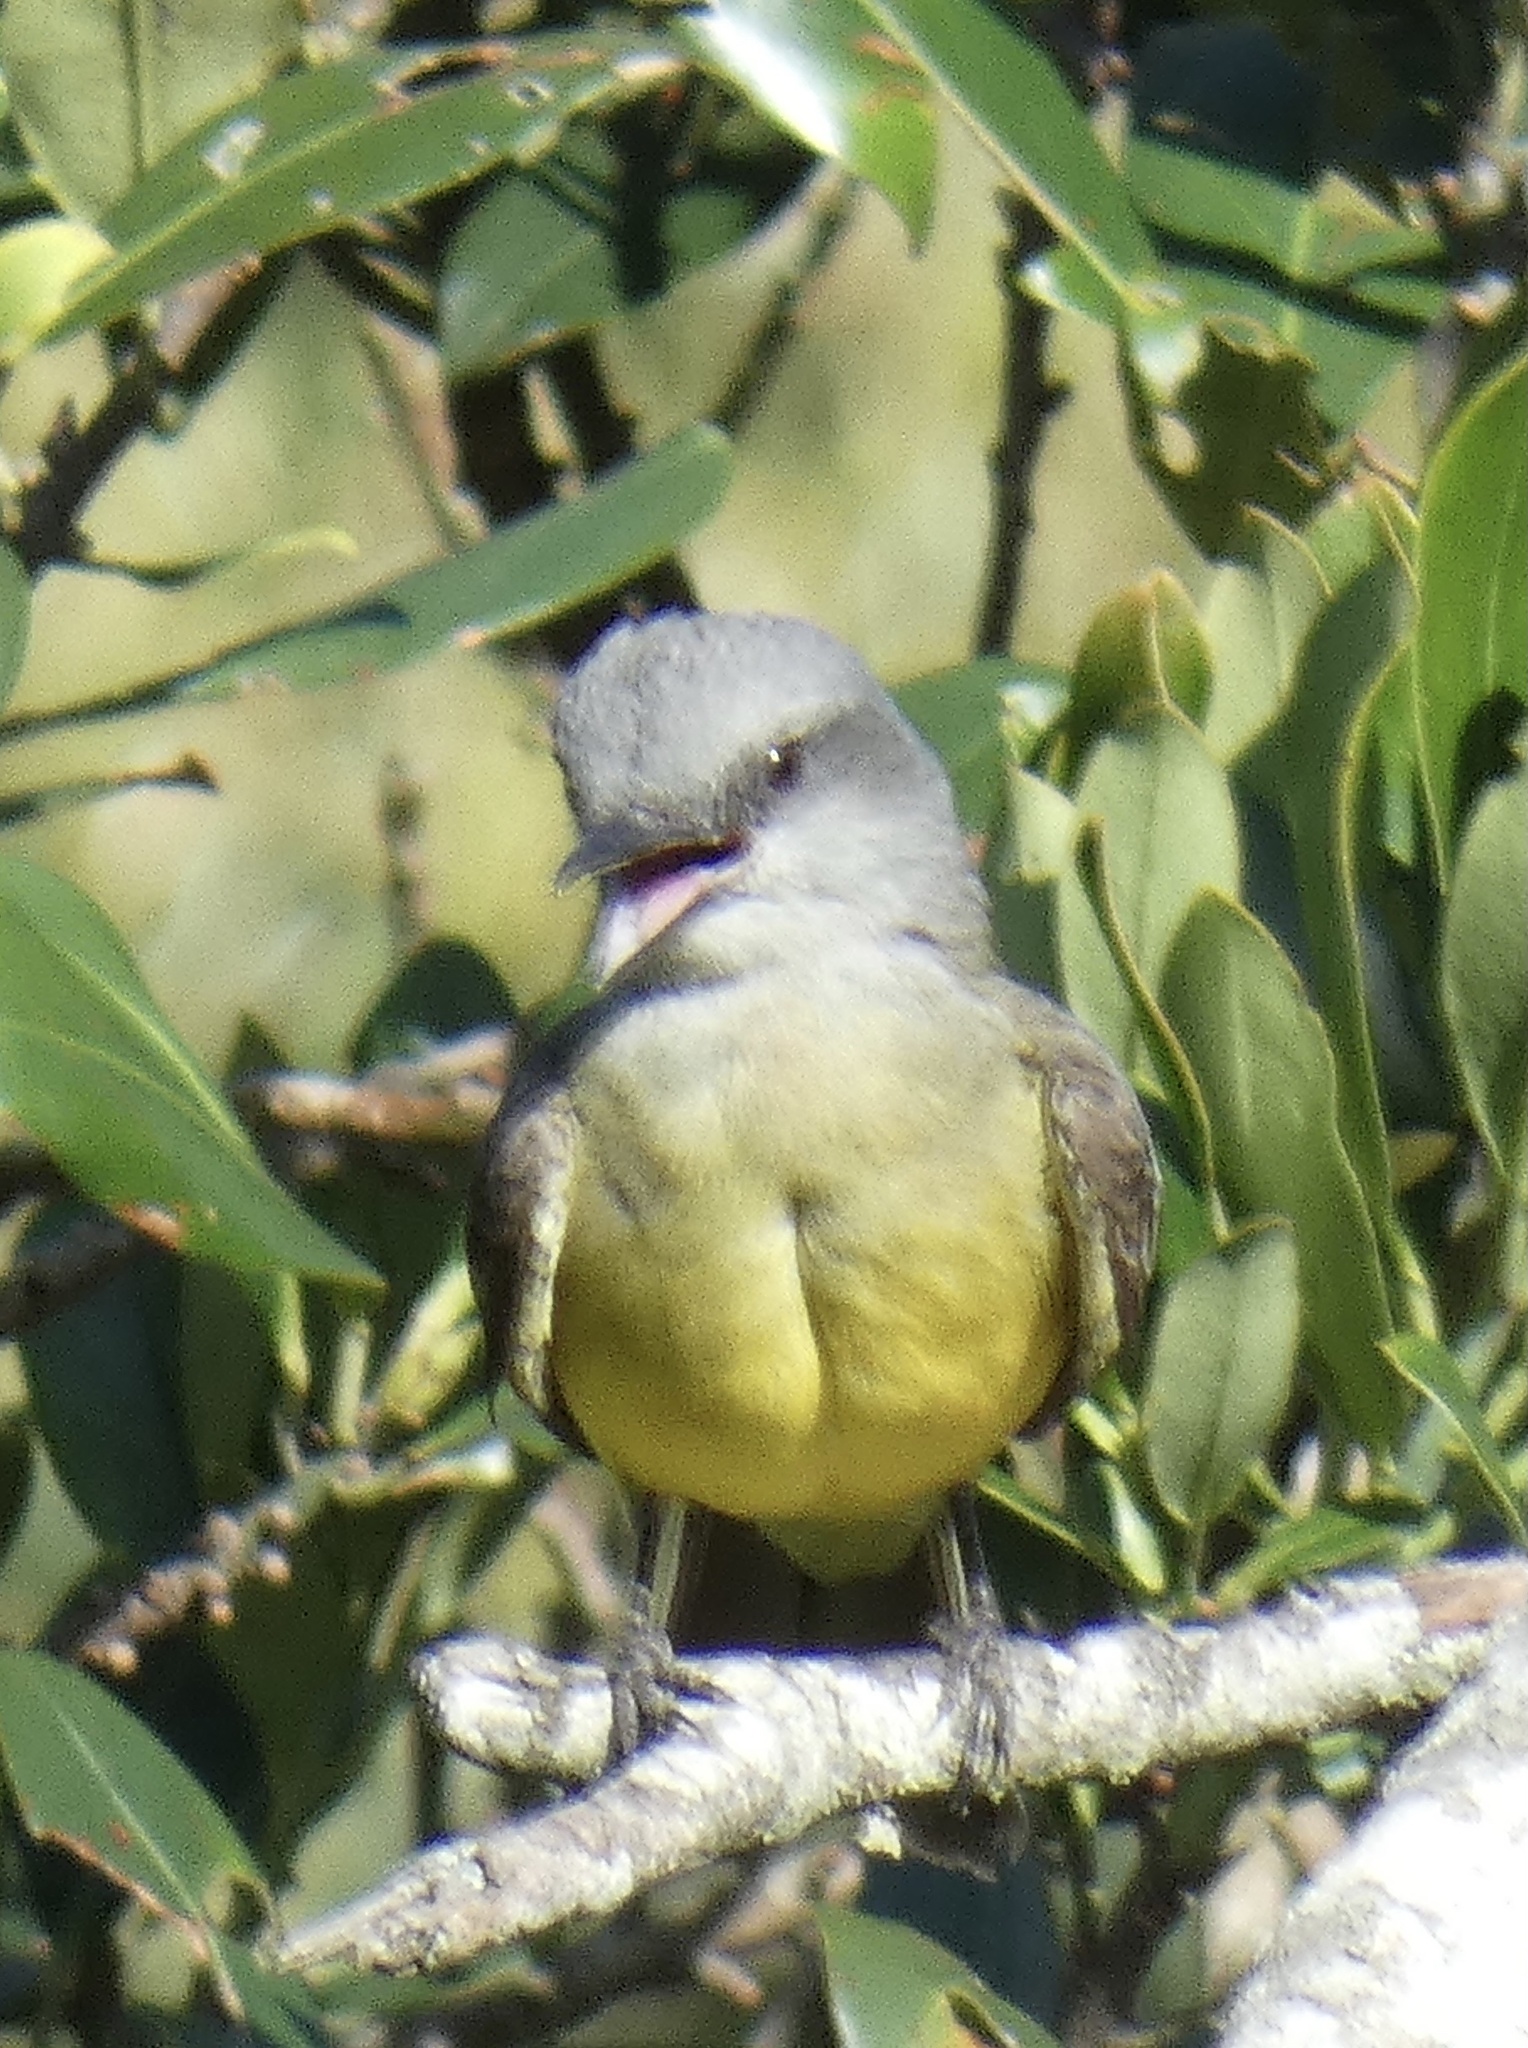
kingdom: Animalia
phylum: Chordata
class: Aves
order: Passeriformes
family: Tyrannidae
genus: Tyrannus
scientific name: Tyrannus melancholicus
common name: Tropical kingbird
